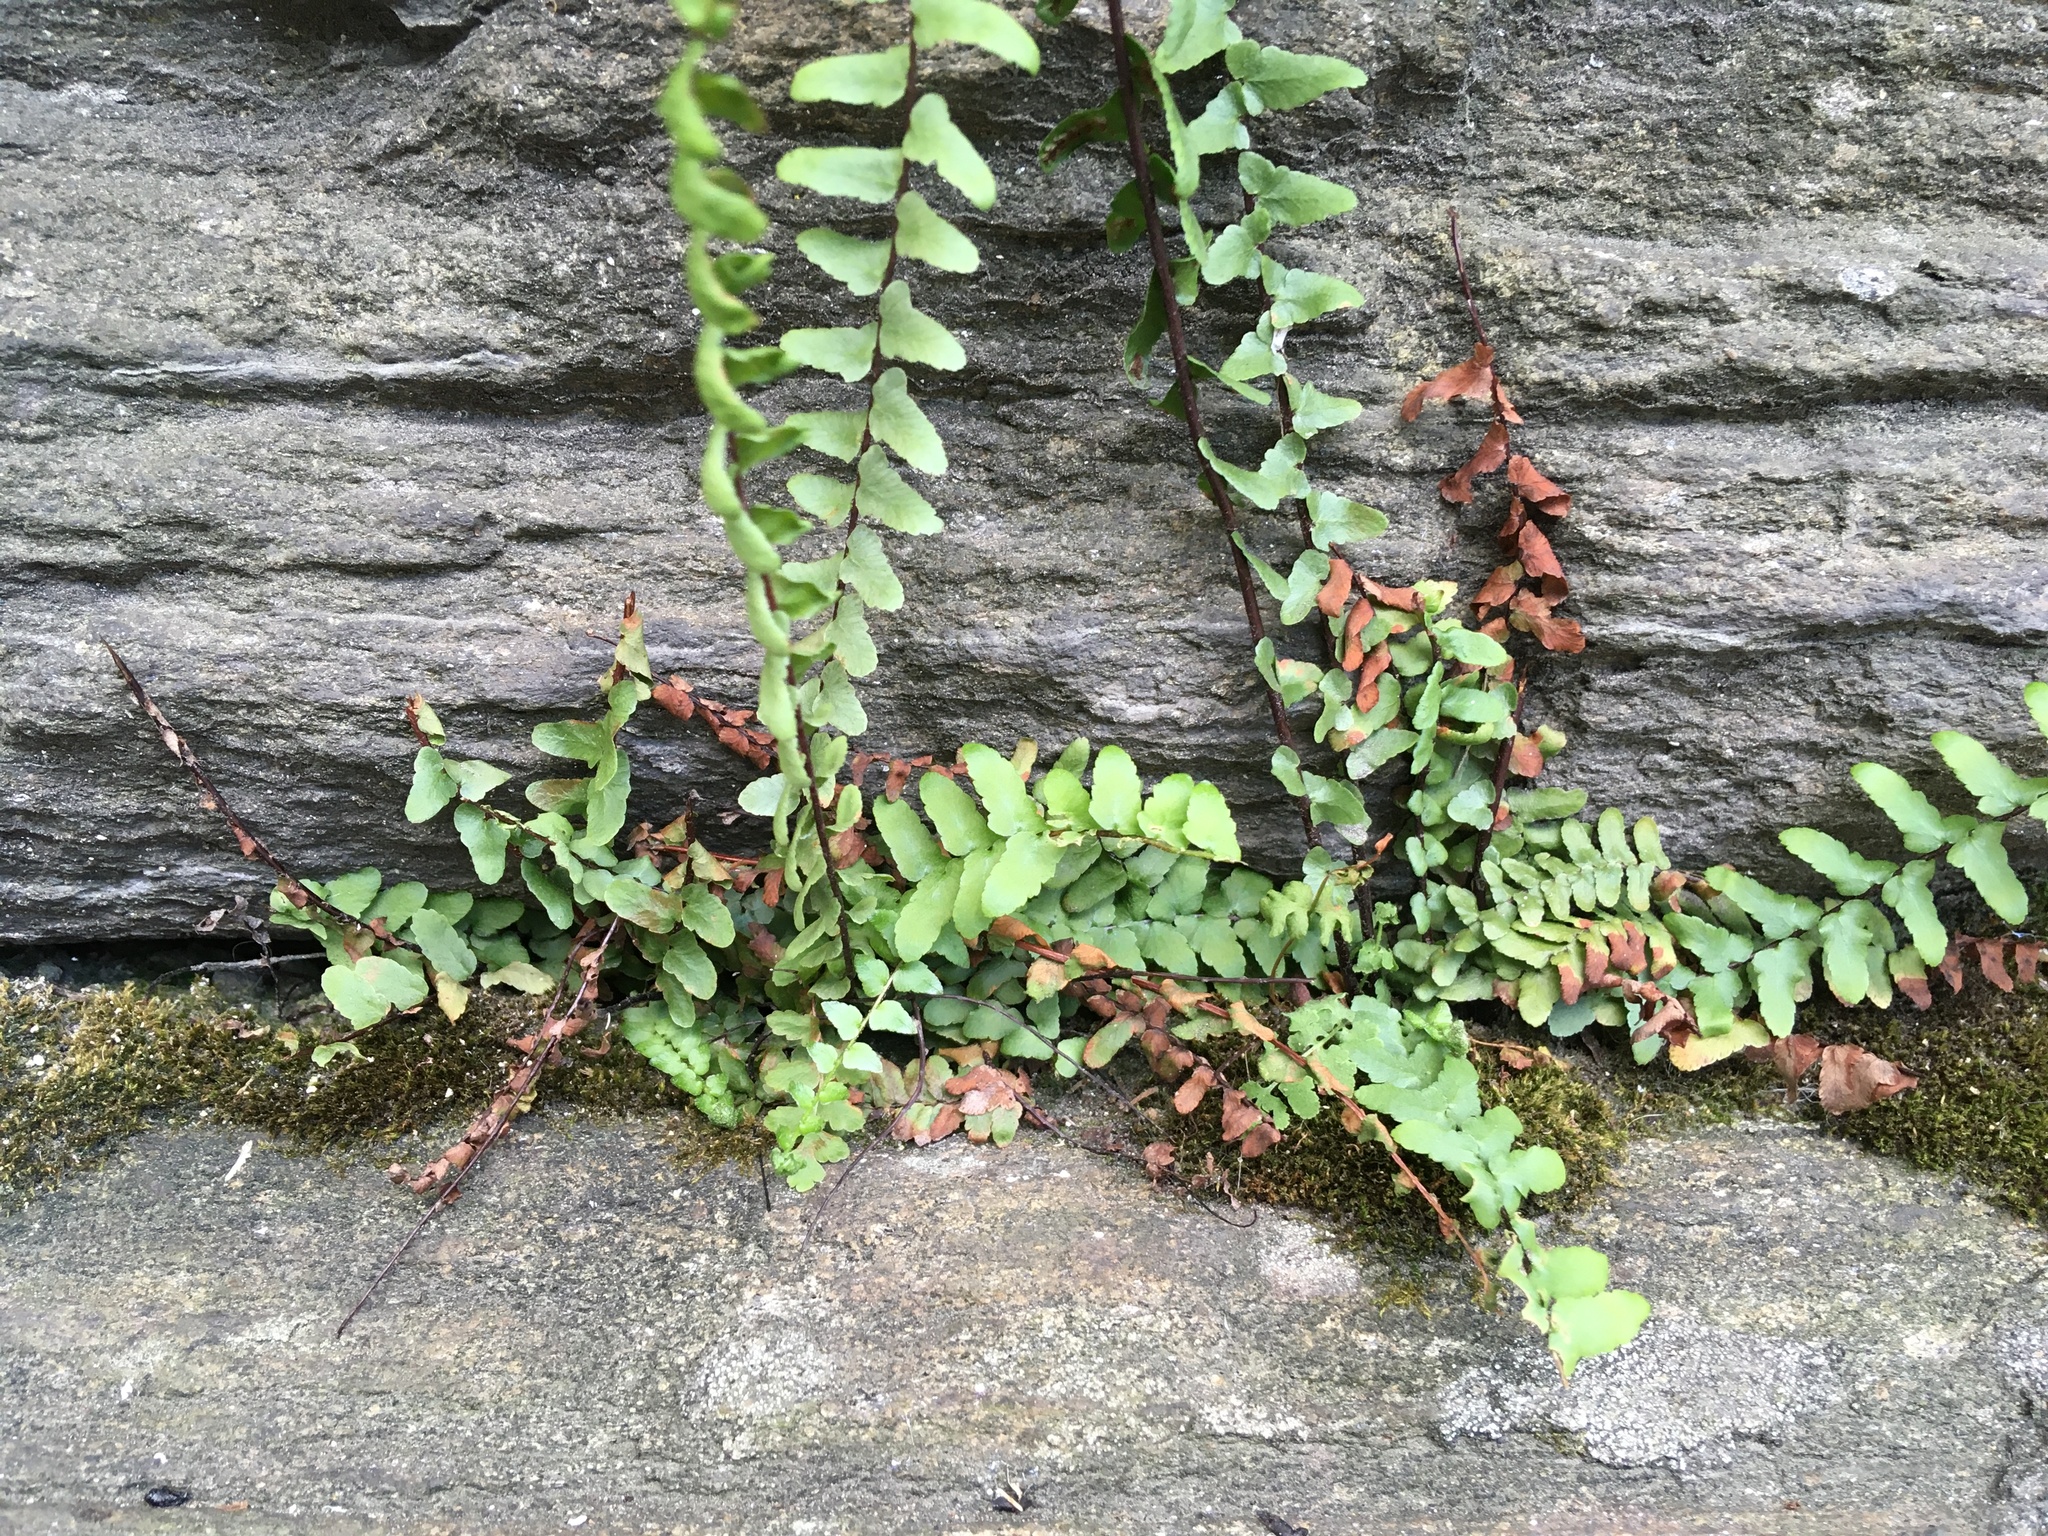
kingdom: Plantae
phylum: Tracheophyta
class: Polypodiopsida
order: Polypodiales
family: Aspleniaceae
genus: Asplenium
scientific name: Asplenium platyneuron
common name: Ebony spleenwort
